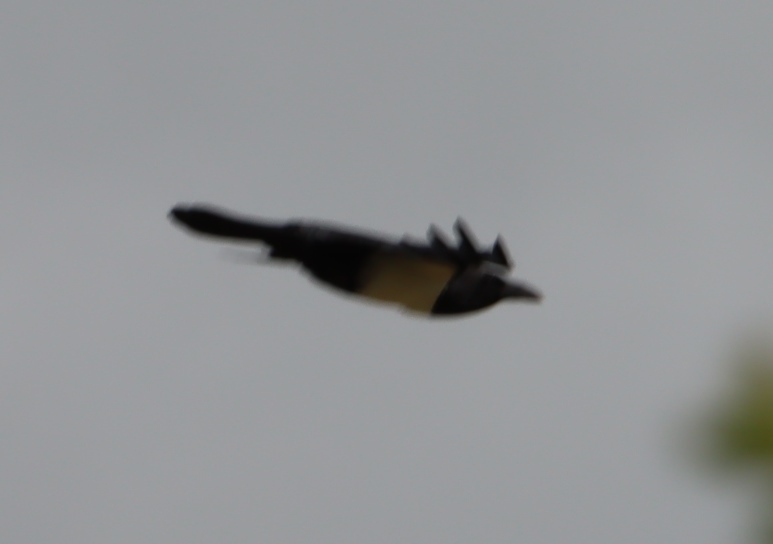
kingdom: Animalia
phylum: Chordata
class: Aves
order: Passeriformes
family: Corvidae
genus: Corvus
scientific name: Corvus albus
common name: Pied crow
